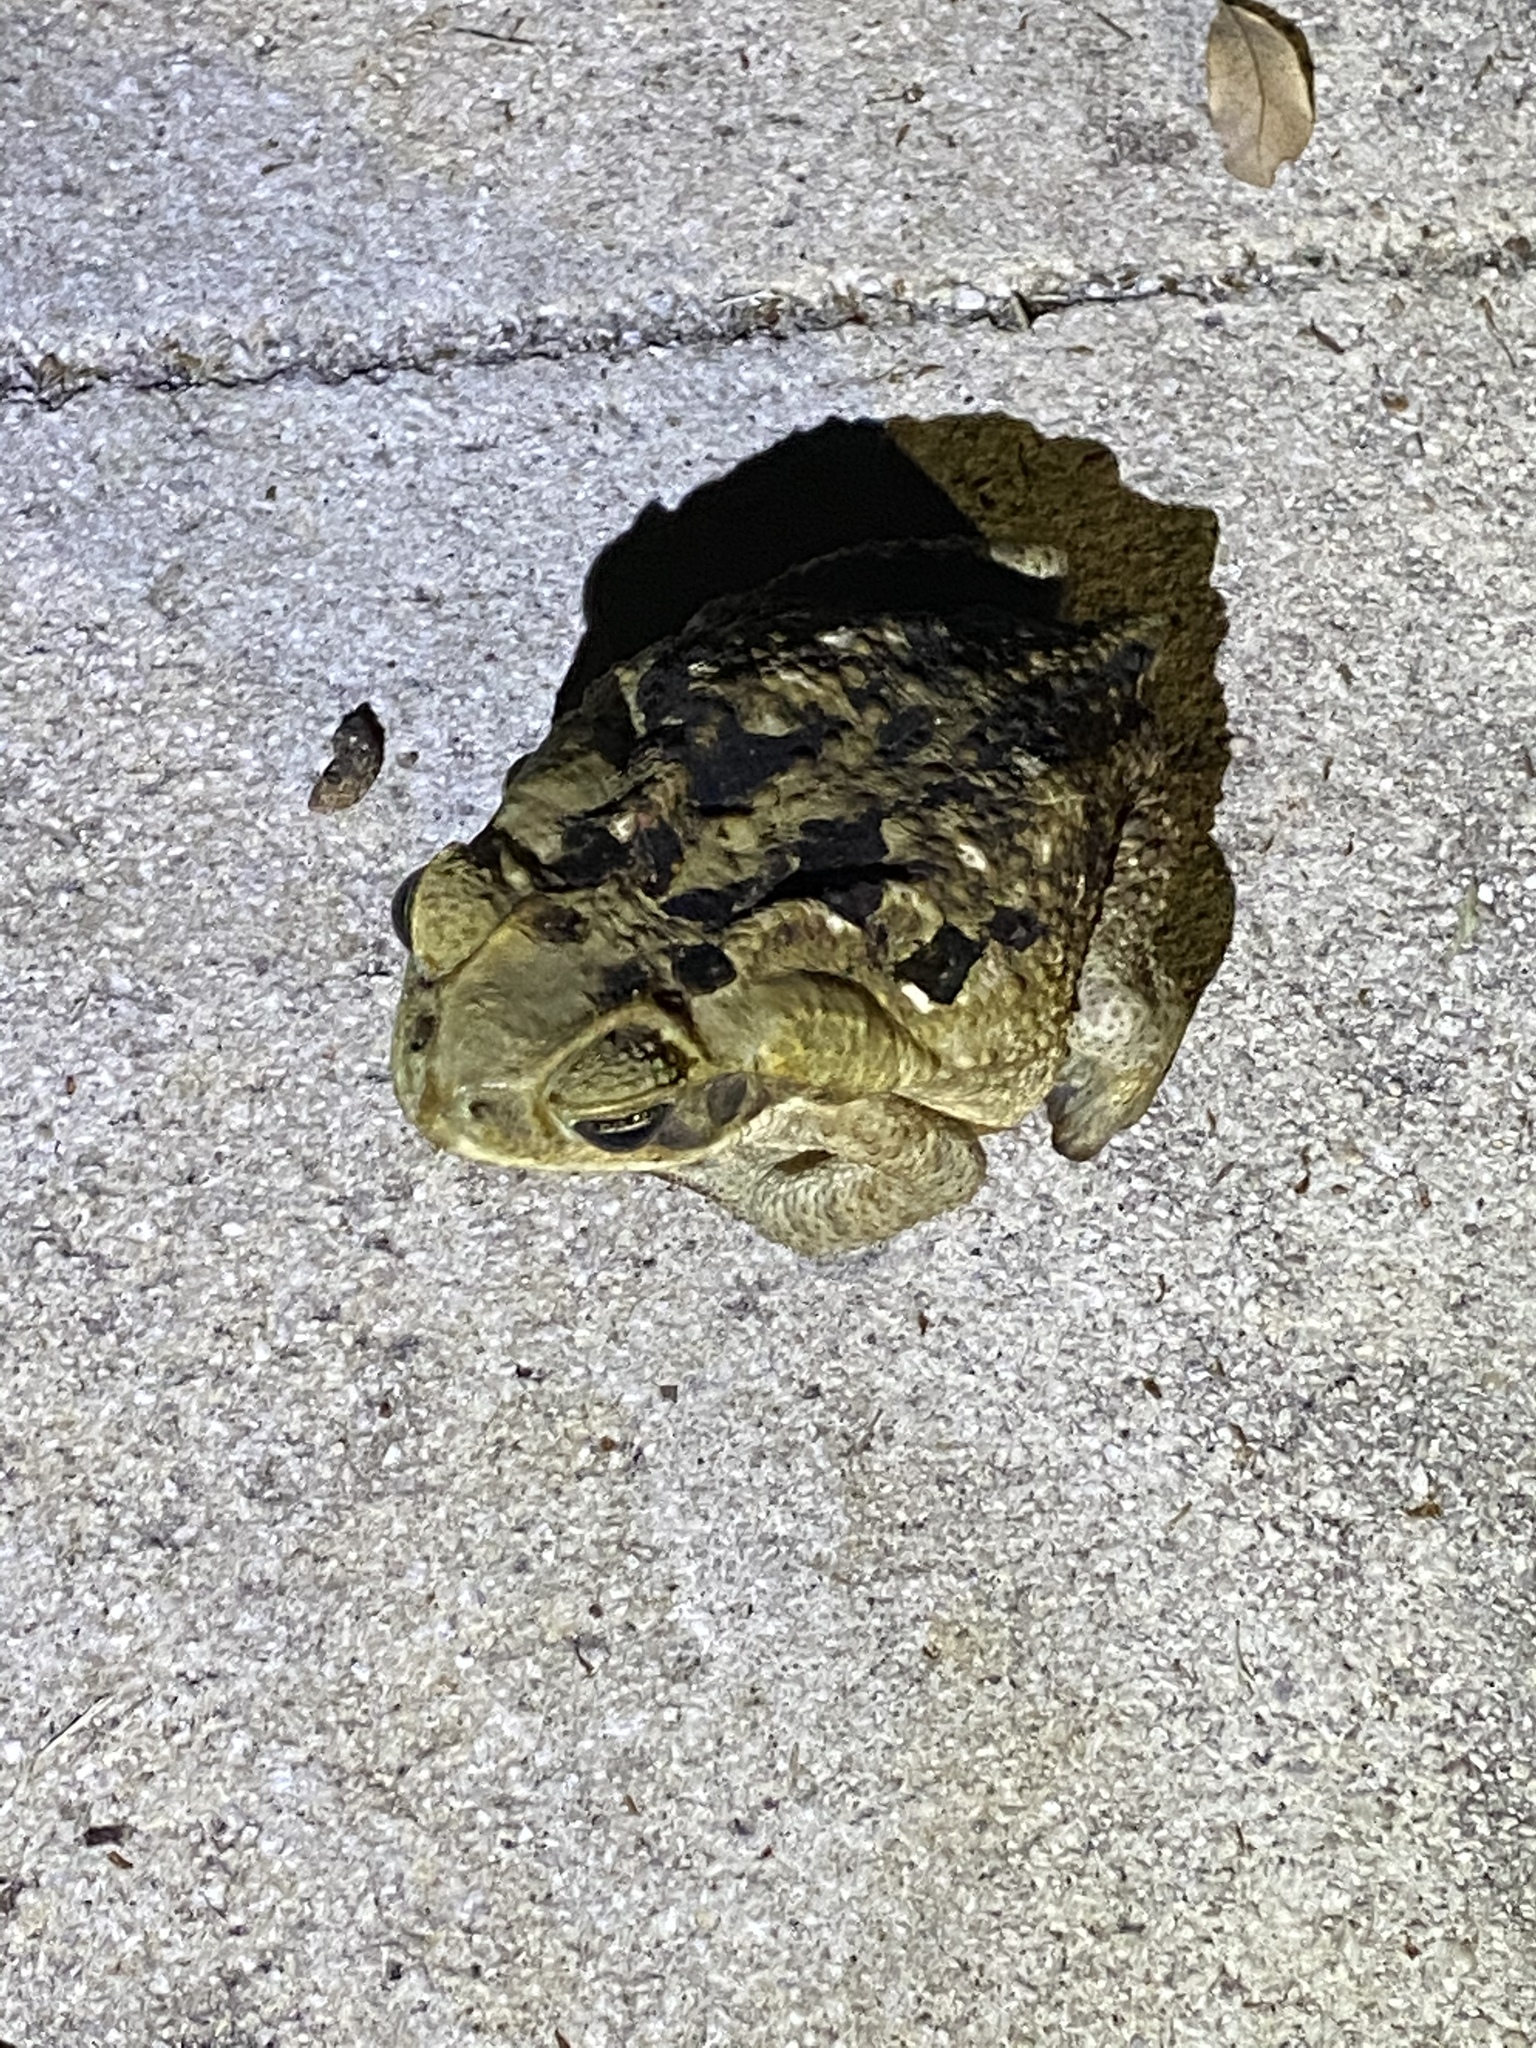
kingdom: Animalia
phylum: Chordata
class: Amphibia
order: Anura
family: Bufonidae
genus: Rhinella
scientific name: Rhinella marina
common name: Cane toad
